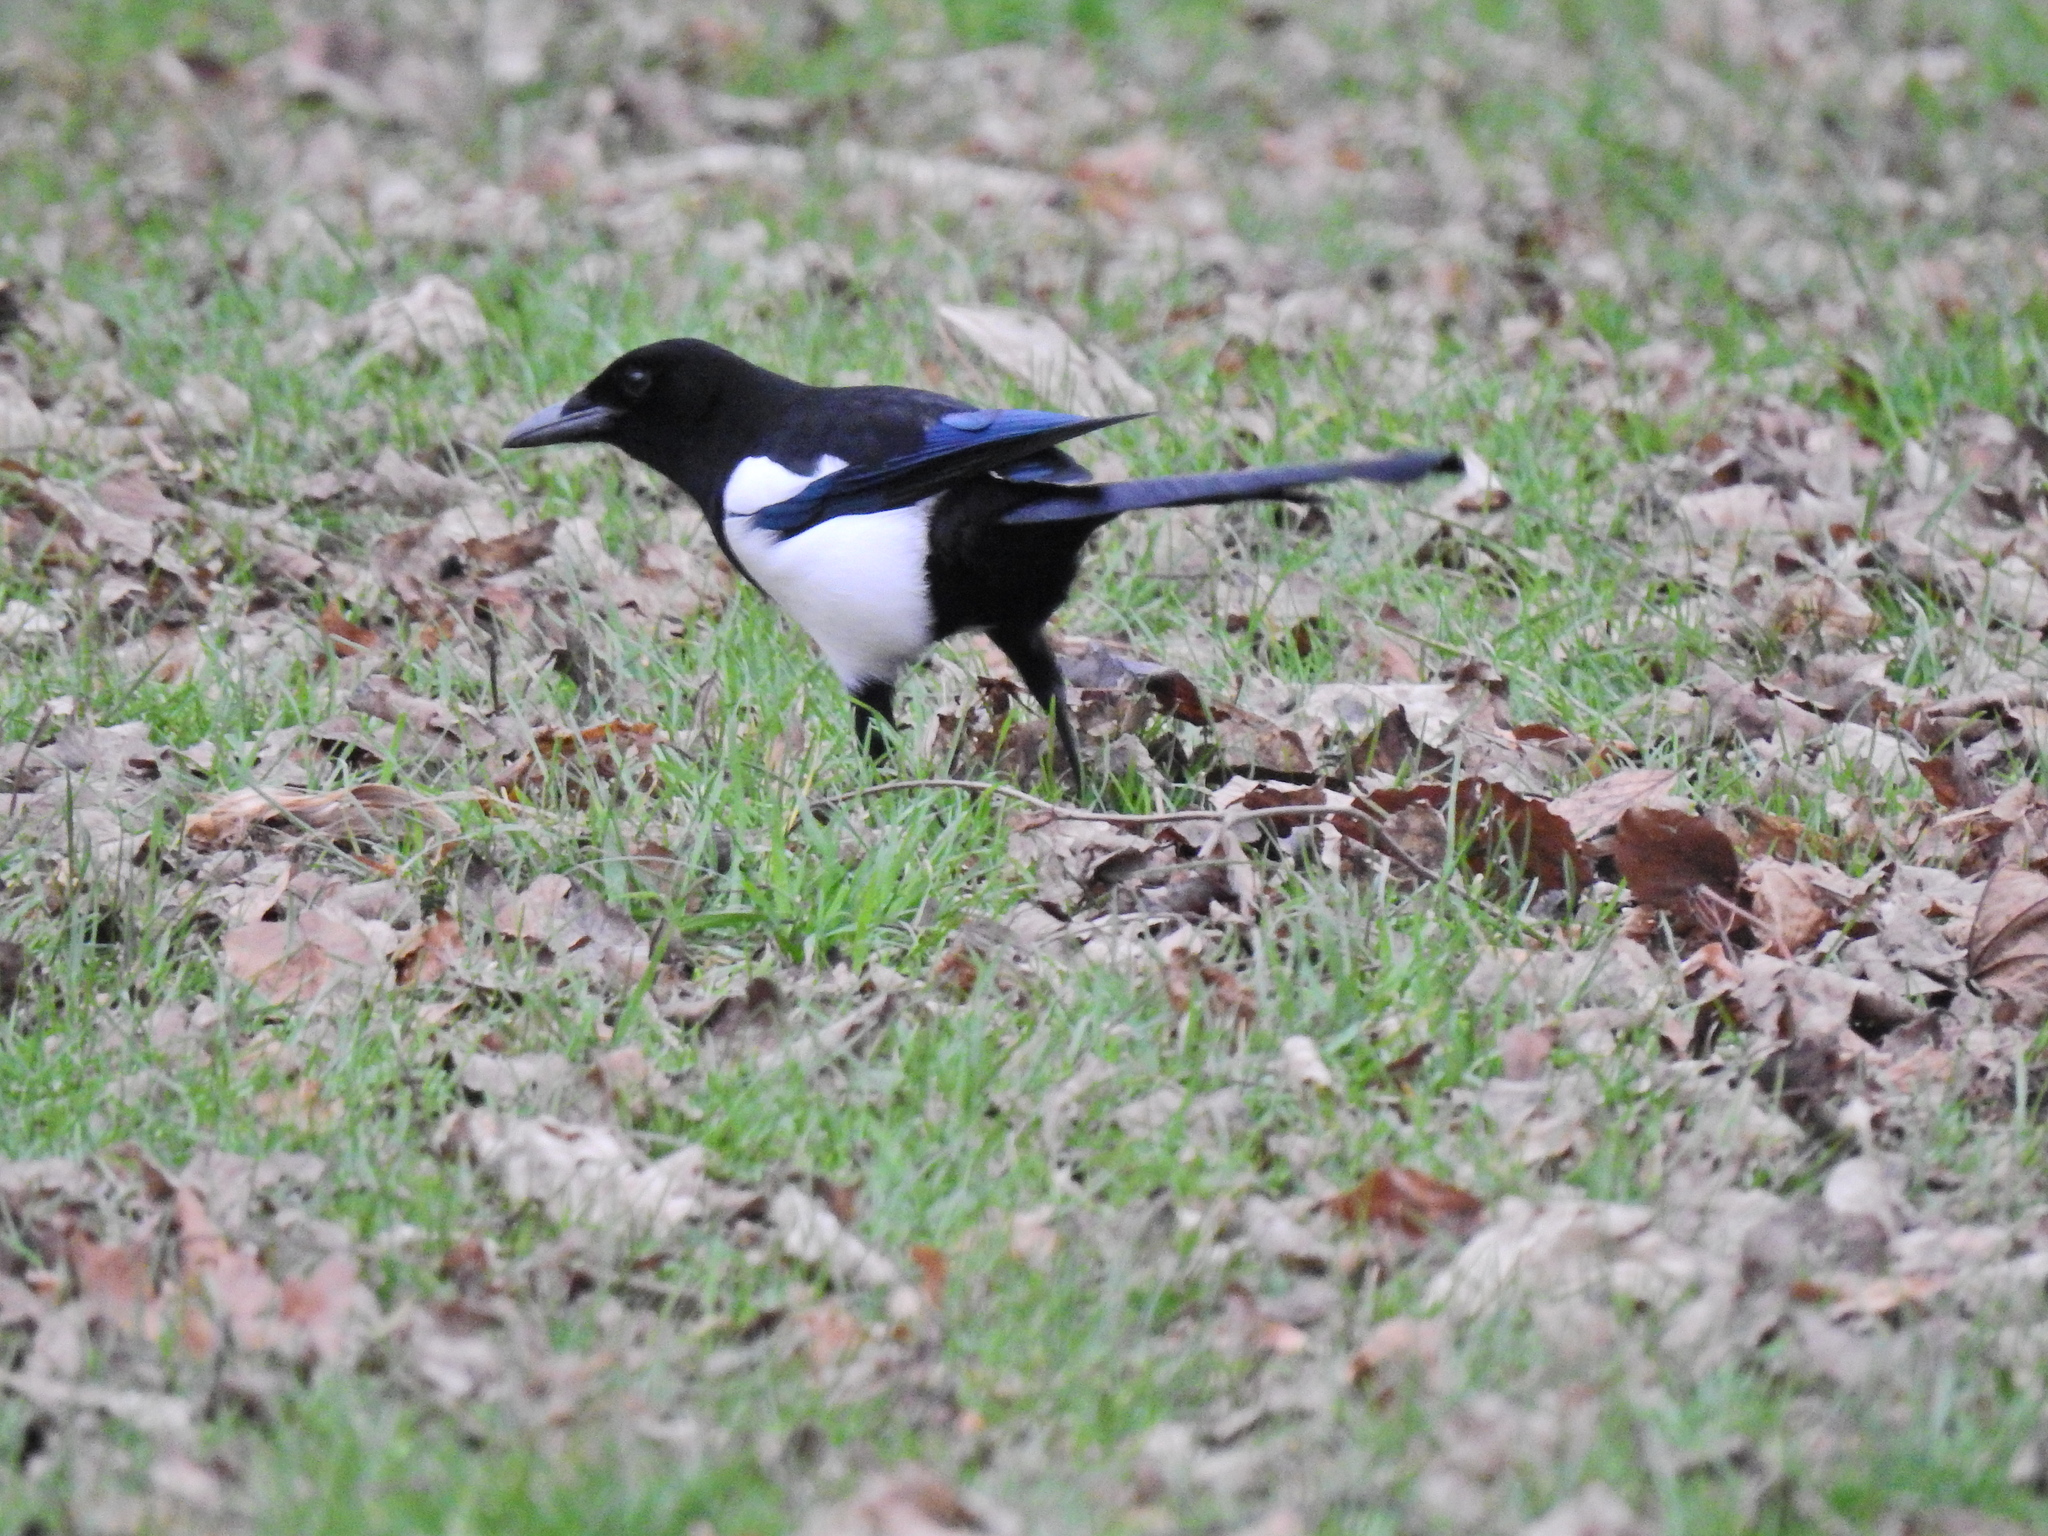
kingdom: Animalia
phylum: Chordata
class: Aves
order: Passeriformes
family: Corvidae
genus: Pica
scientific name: Pica pica
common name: Eurasian magpie
